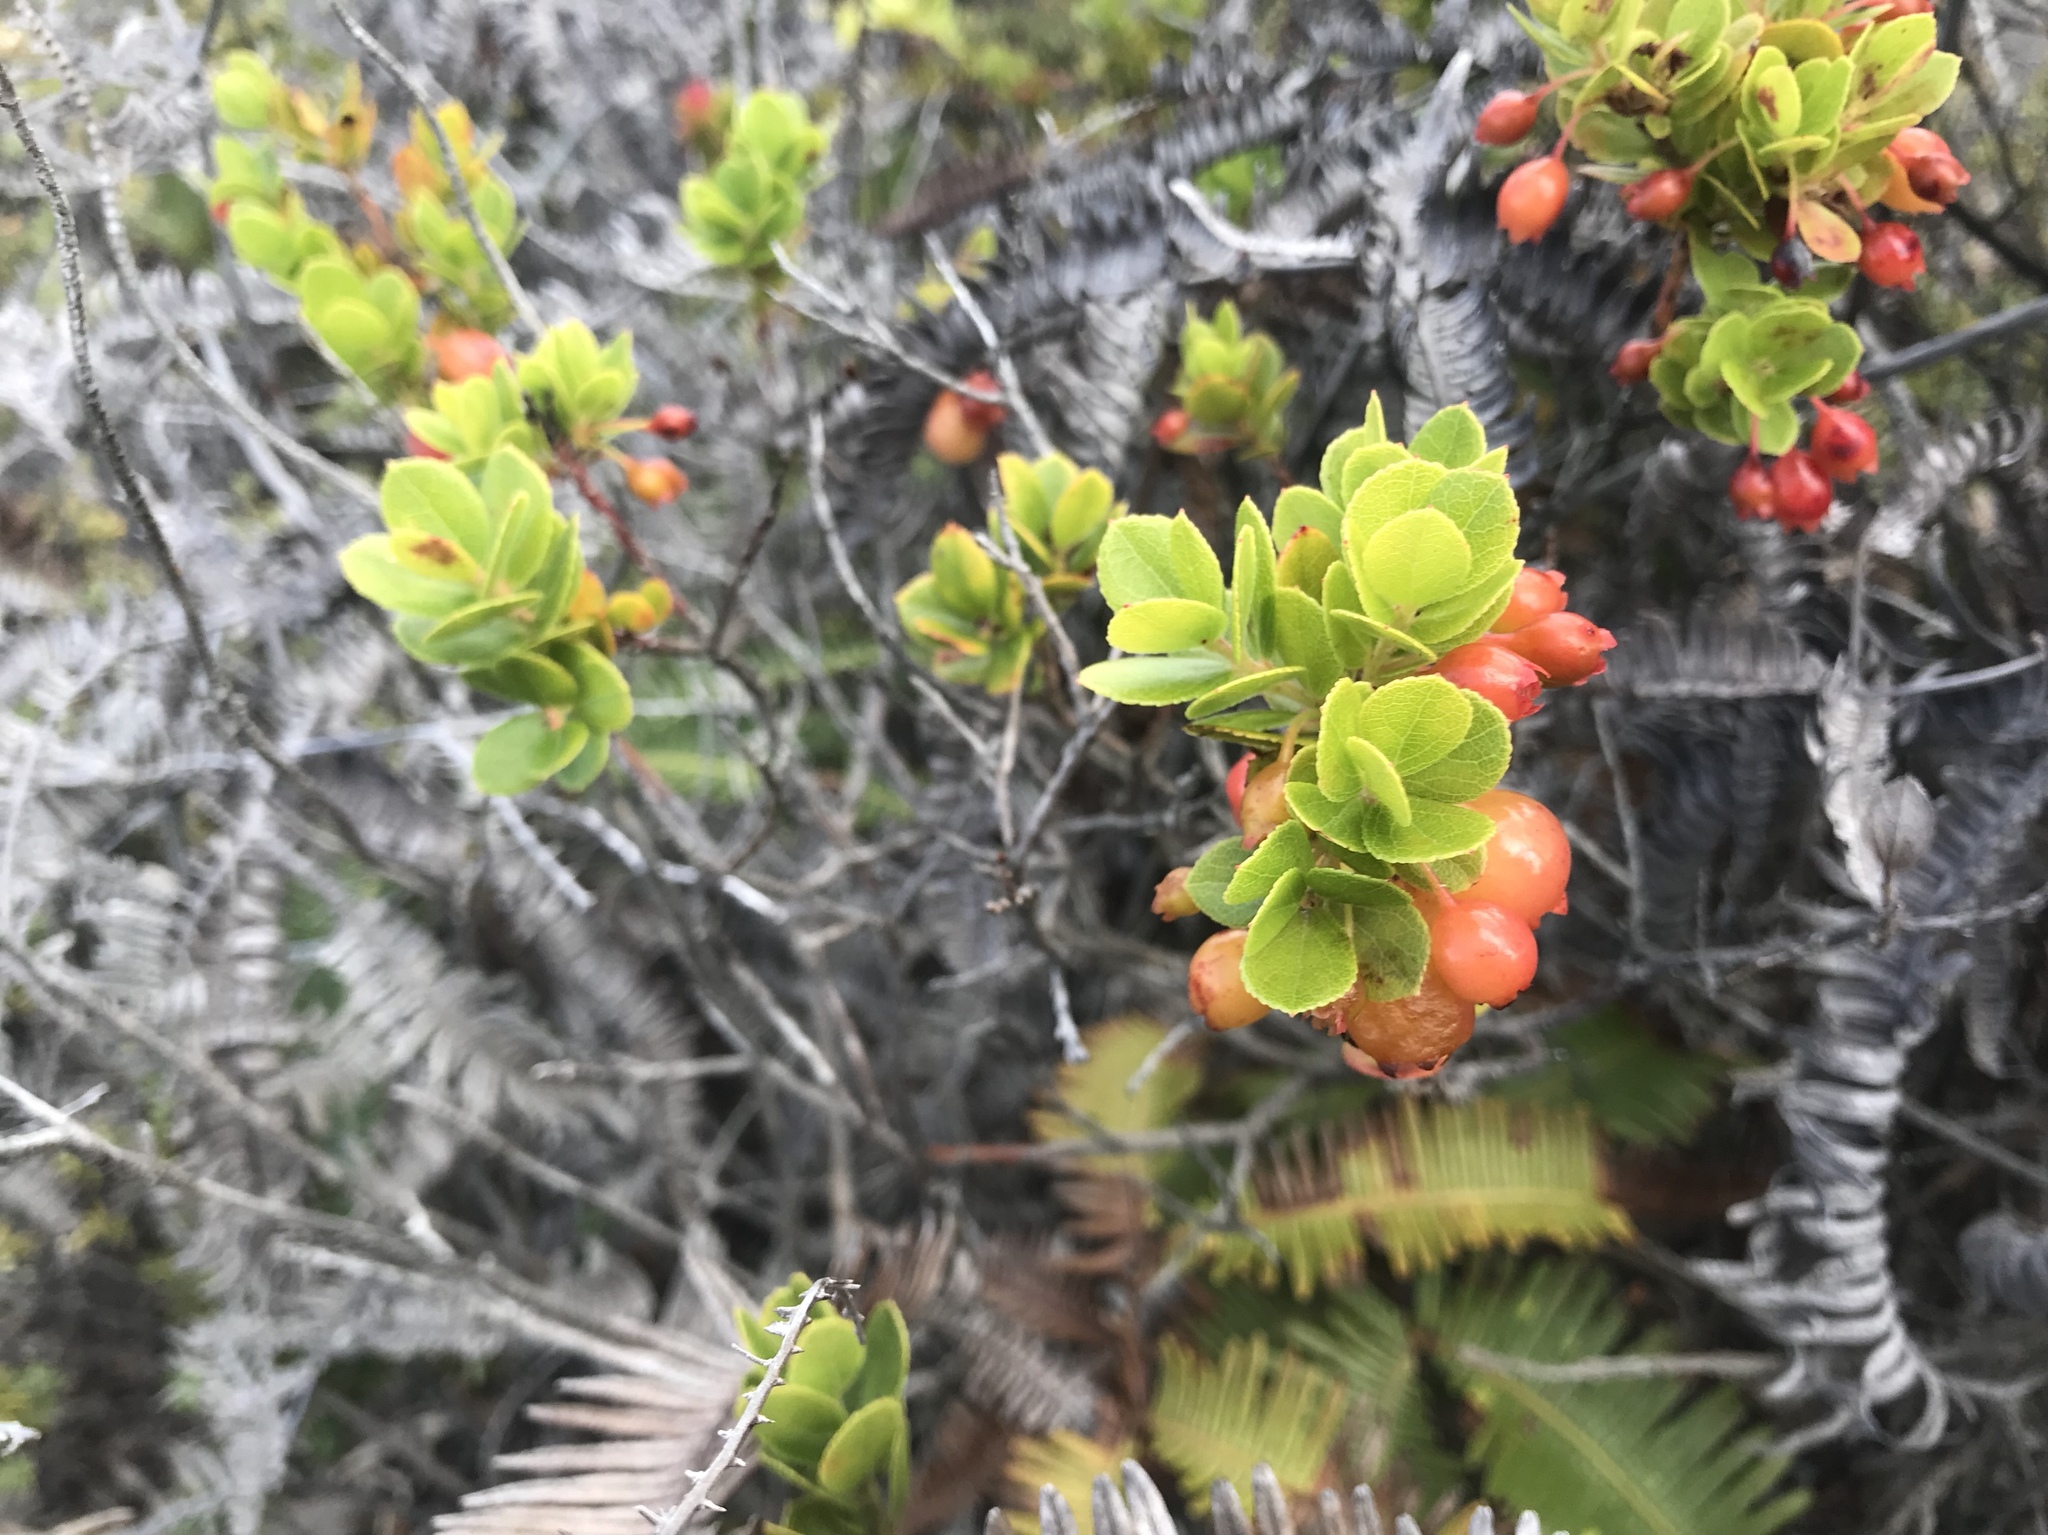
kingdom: Plantae
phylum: Tracheophyta
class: Magnoliopsida
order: Ericales
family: Ericaceae
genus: Vaccinium
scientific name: Vaccinium reticulatum
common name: Ohelo
